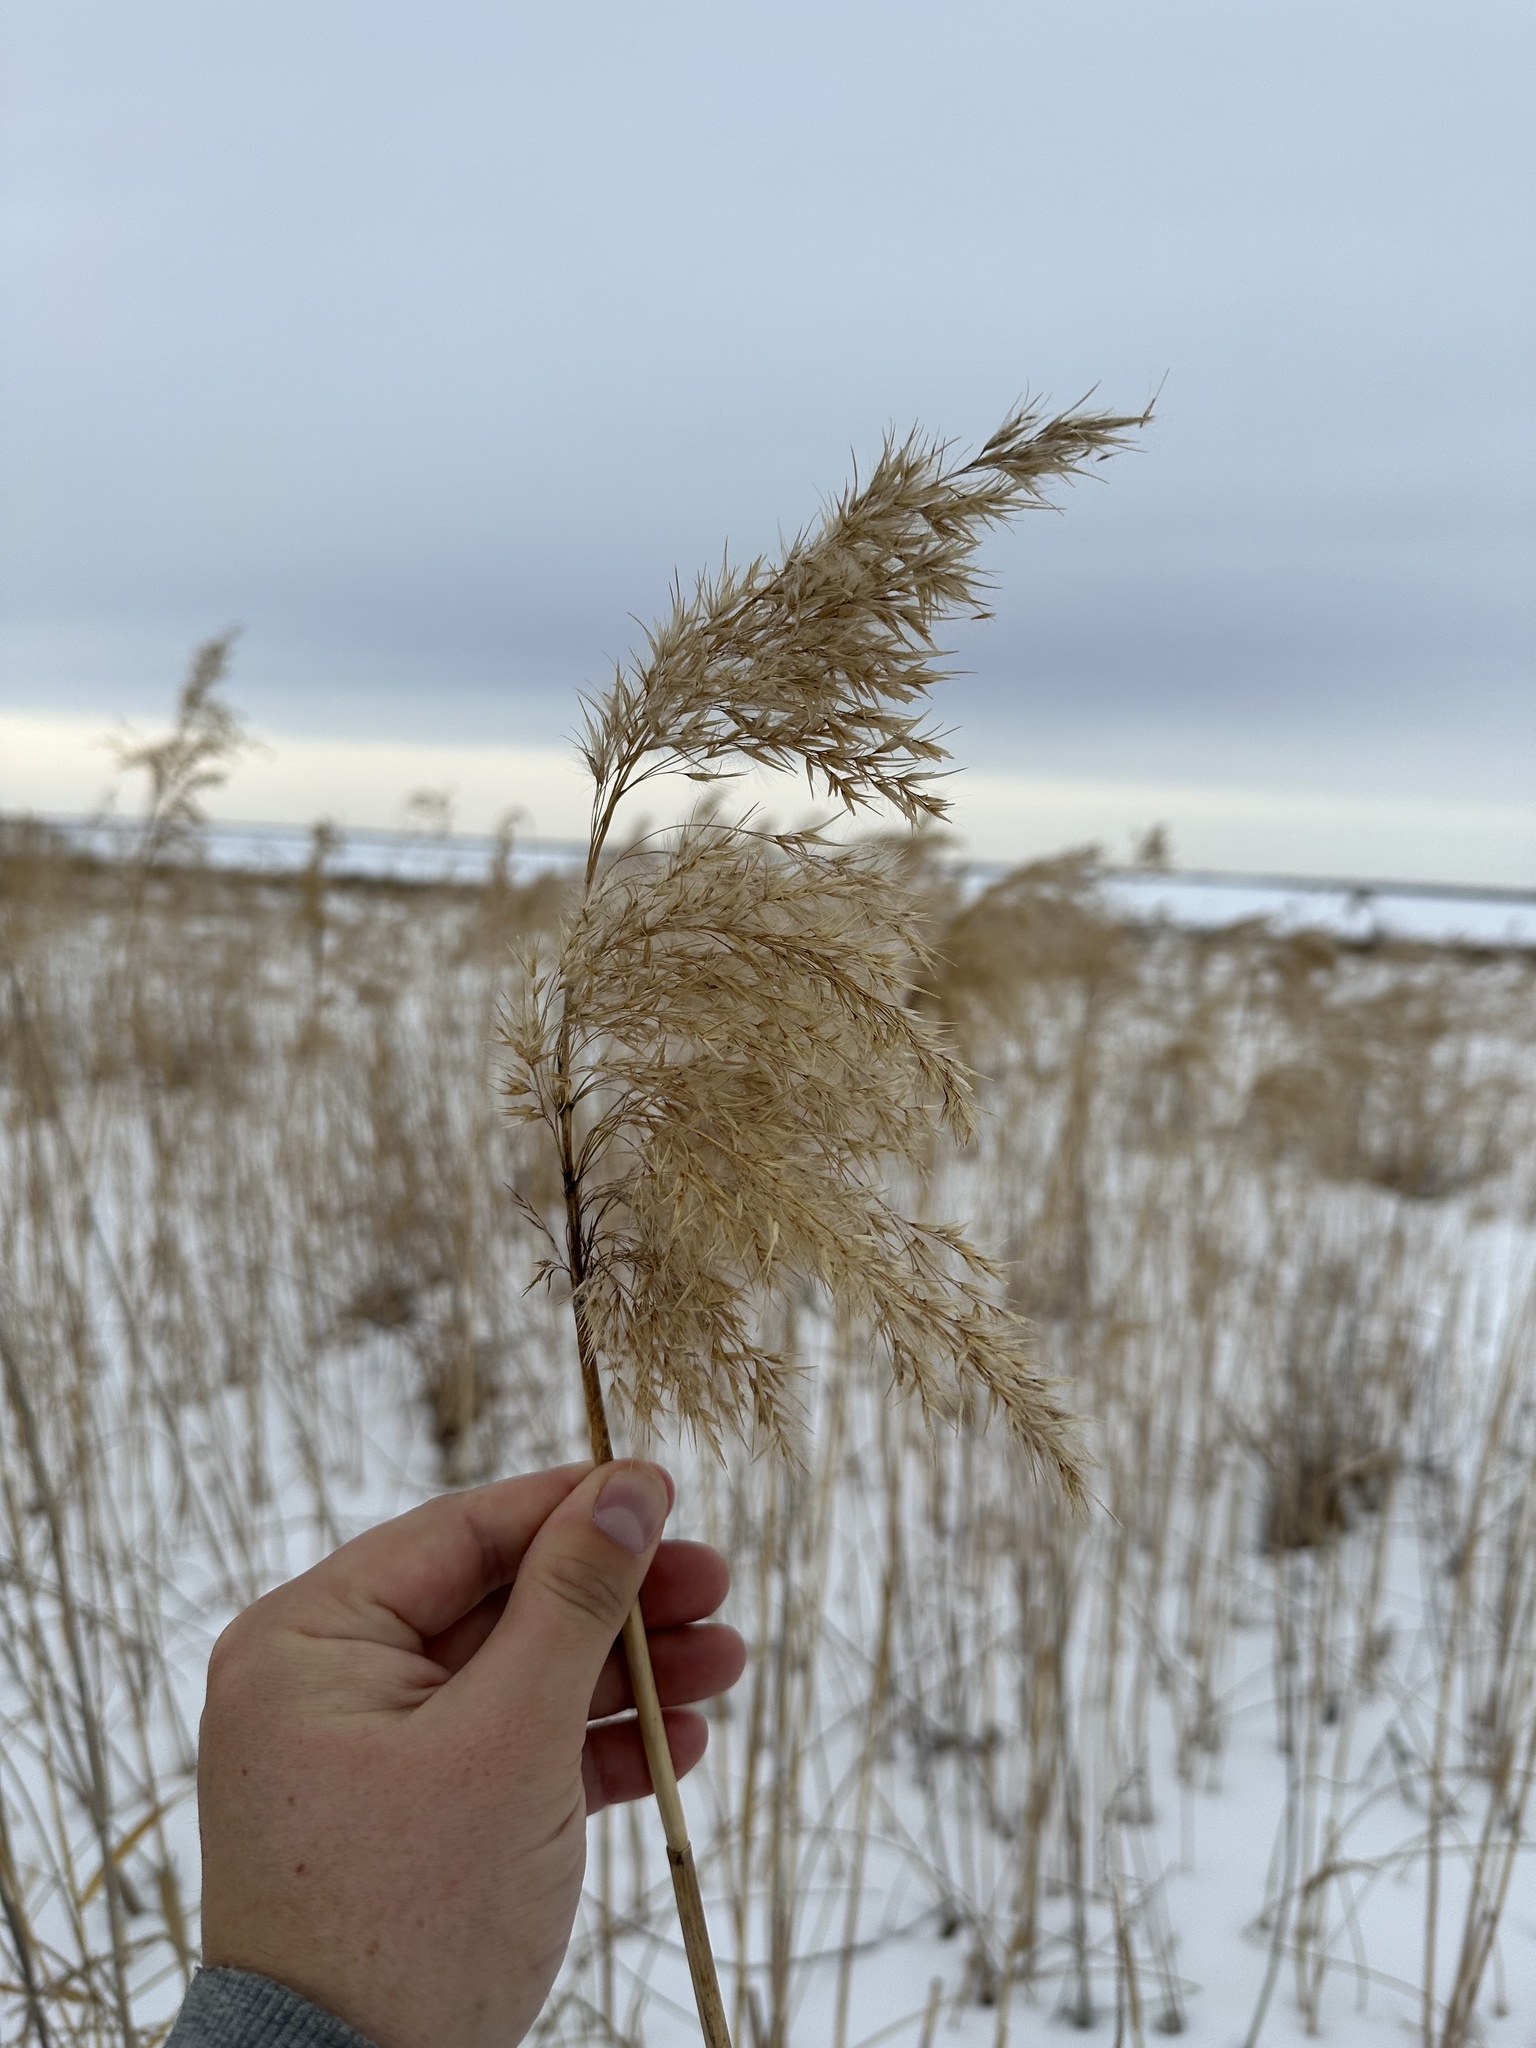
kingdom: Plantae
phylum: Tracheophyta
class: Liliopsida
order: Poales
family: Poaceae
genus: Phragmites
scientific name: Phragmites australis
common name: Common reed
